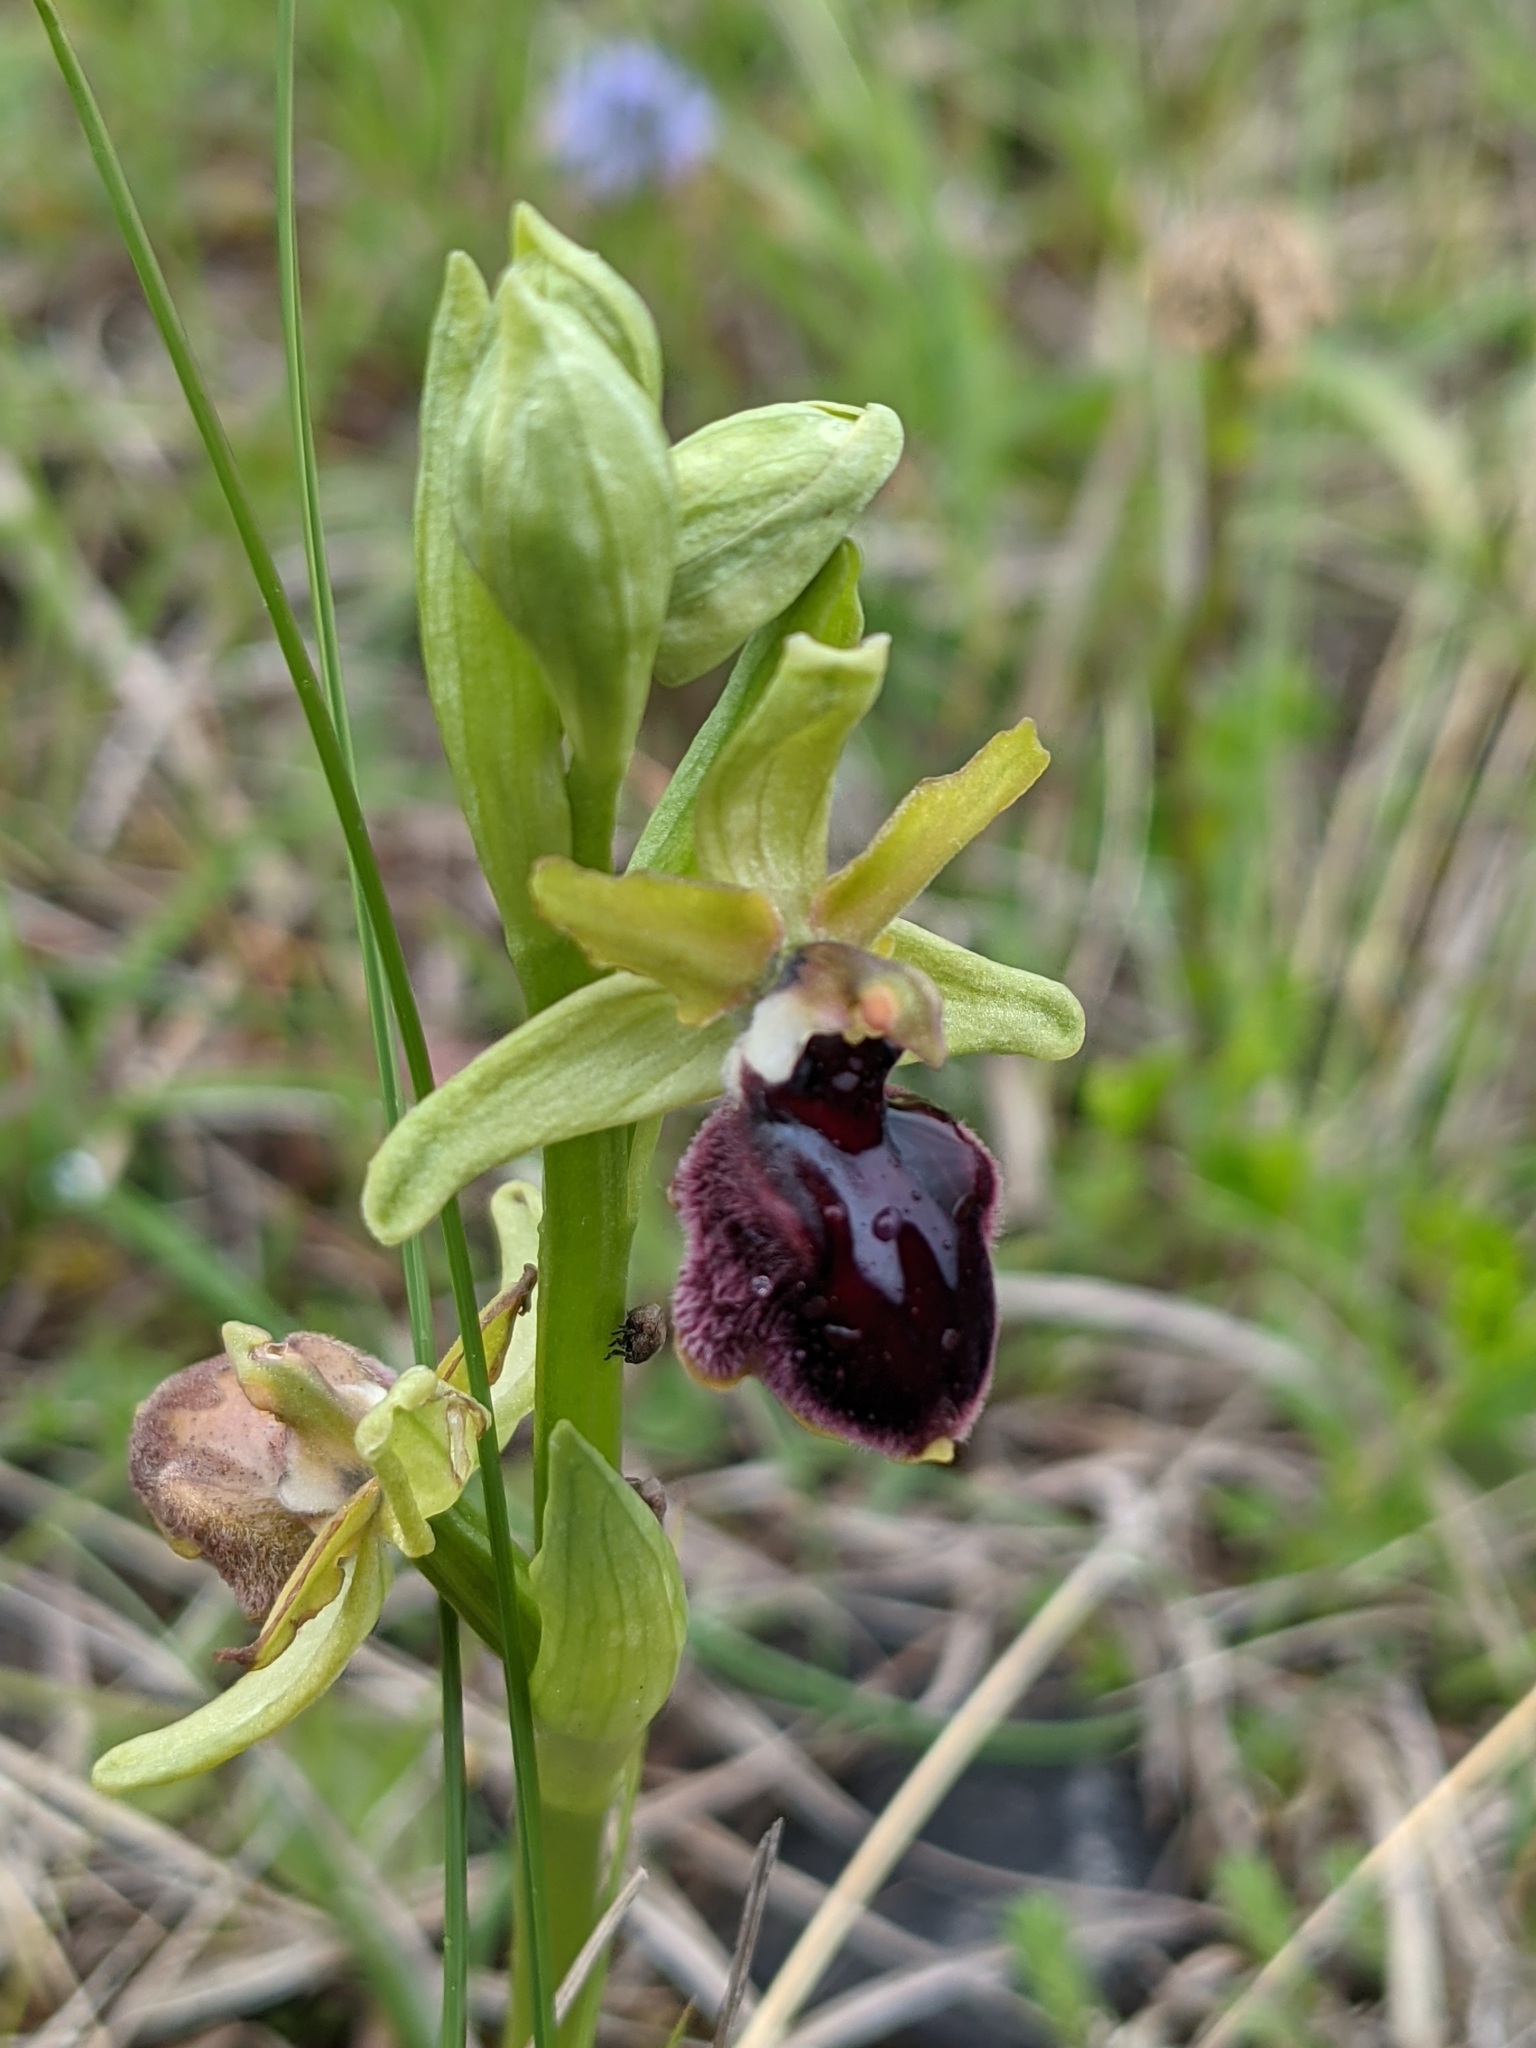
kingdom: Plantae
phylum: Tracheophyta
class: Liliopsida
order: Asparagales
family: Orchidaceae
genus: Ophrys
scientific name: Ophrys sphegodes
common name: Early spider-orchid
